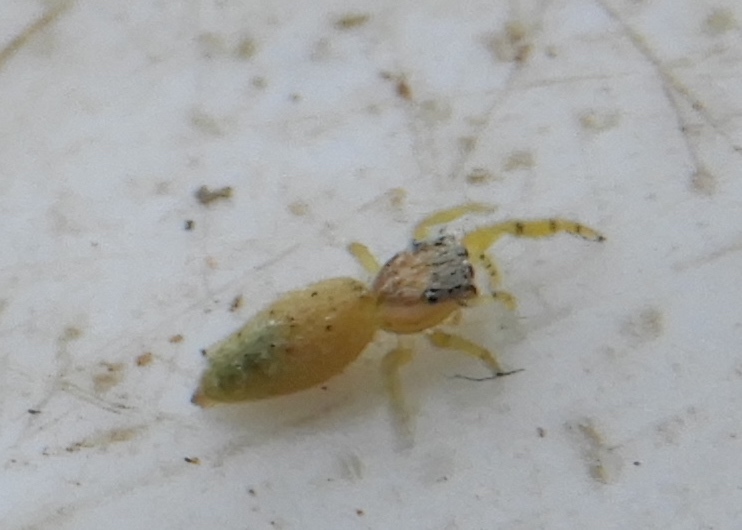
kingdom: Animalia
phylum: Arthropoda
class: Arachnida
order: Araneae
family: Salticidae
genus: Hentzia
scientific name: Hentzia
